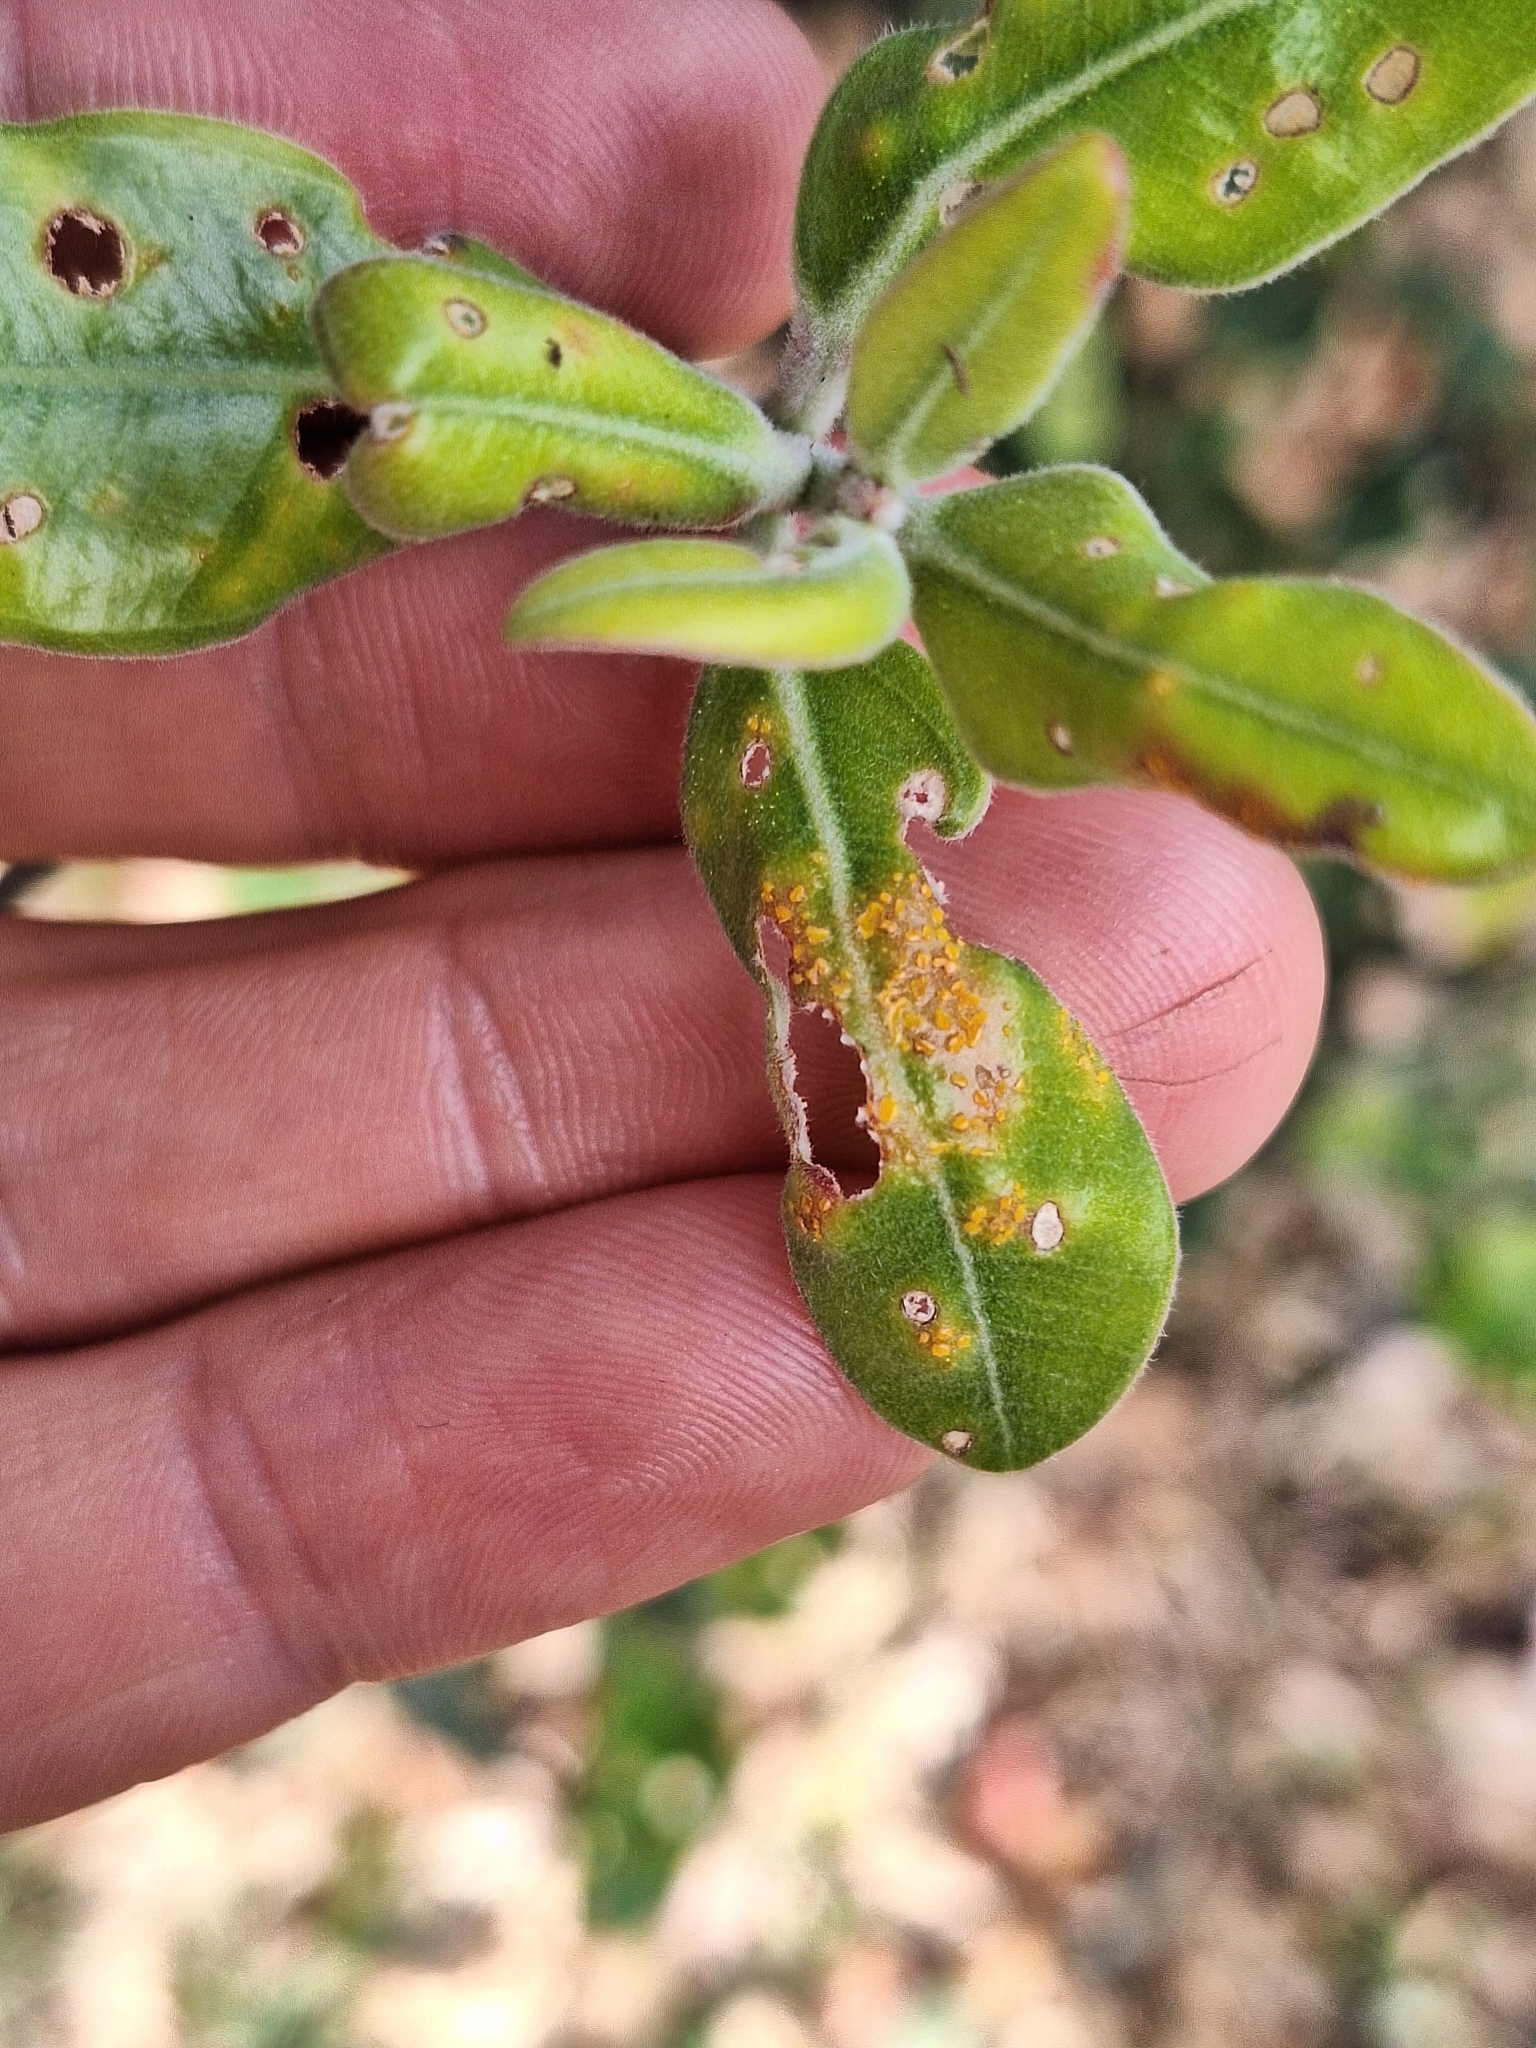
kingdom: Fungi
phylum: Basidiomycota
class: Pucciniomycetes
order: Pucciniales
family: Sphaerophragmiaceae
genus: Austropuccinia
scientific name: Austropuccinia psidii
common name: Myrtle rust
